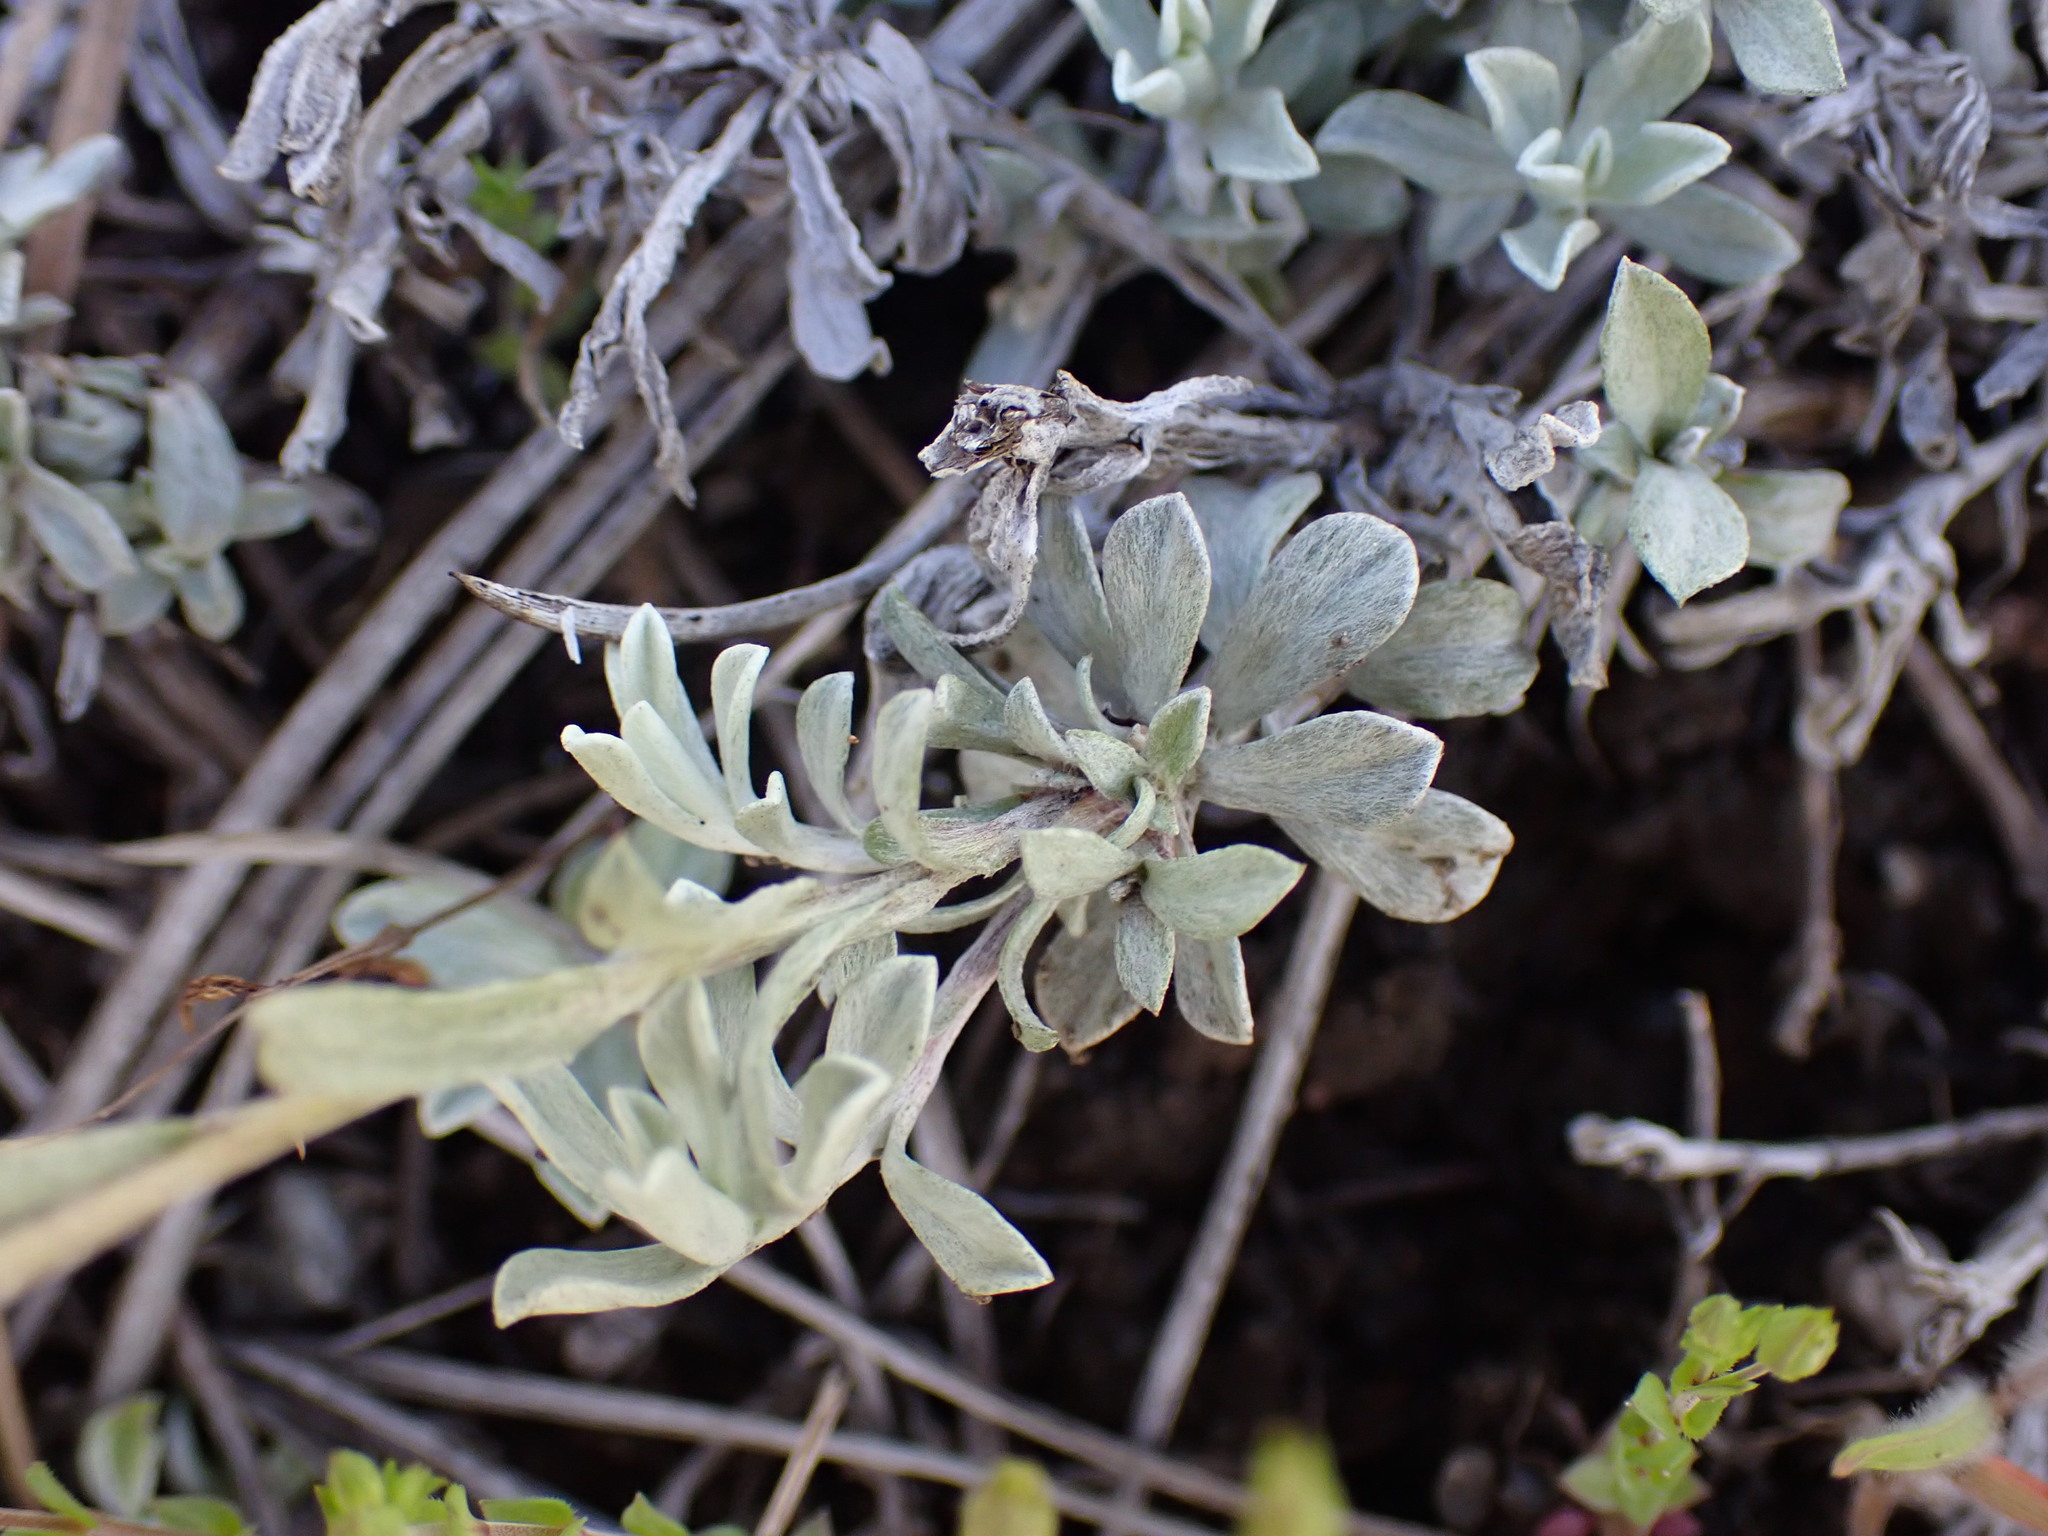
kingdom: Plantae
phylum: Tracheophyta
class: Magnoliopsida
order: Asterales
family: Asteraceae
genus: Antennaria
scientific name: Antennaria umbrinella
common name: Brown pussytoes
